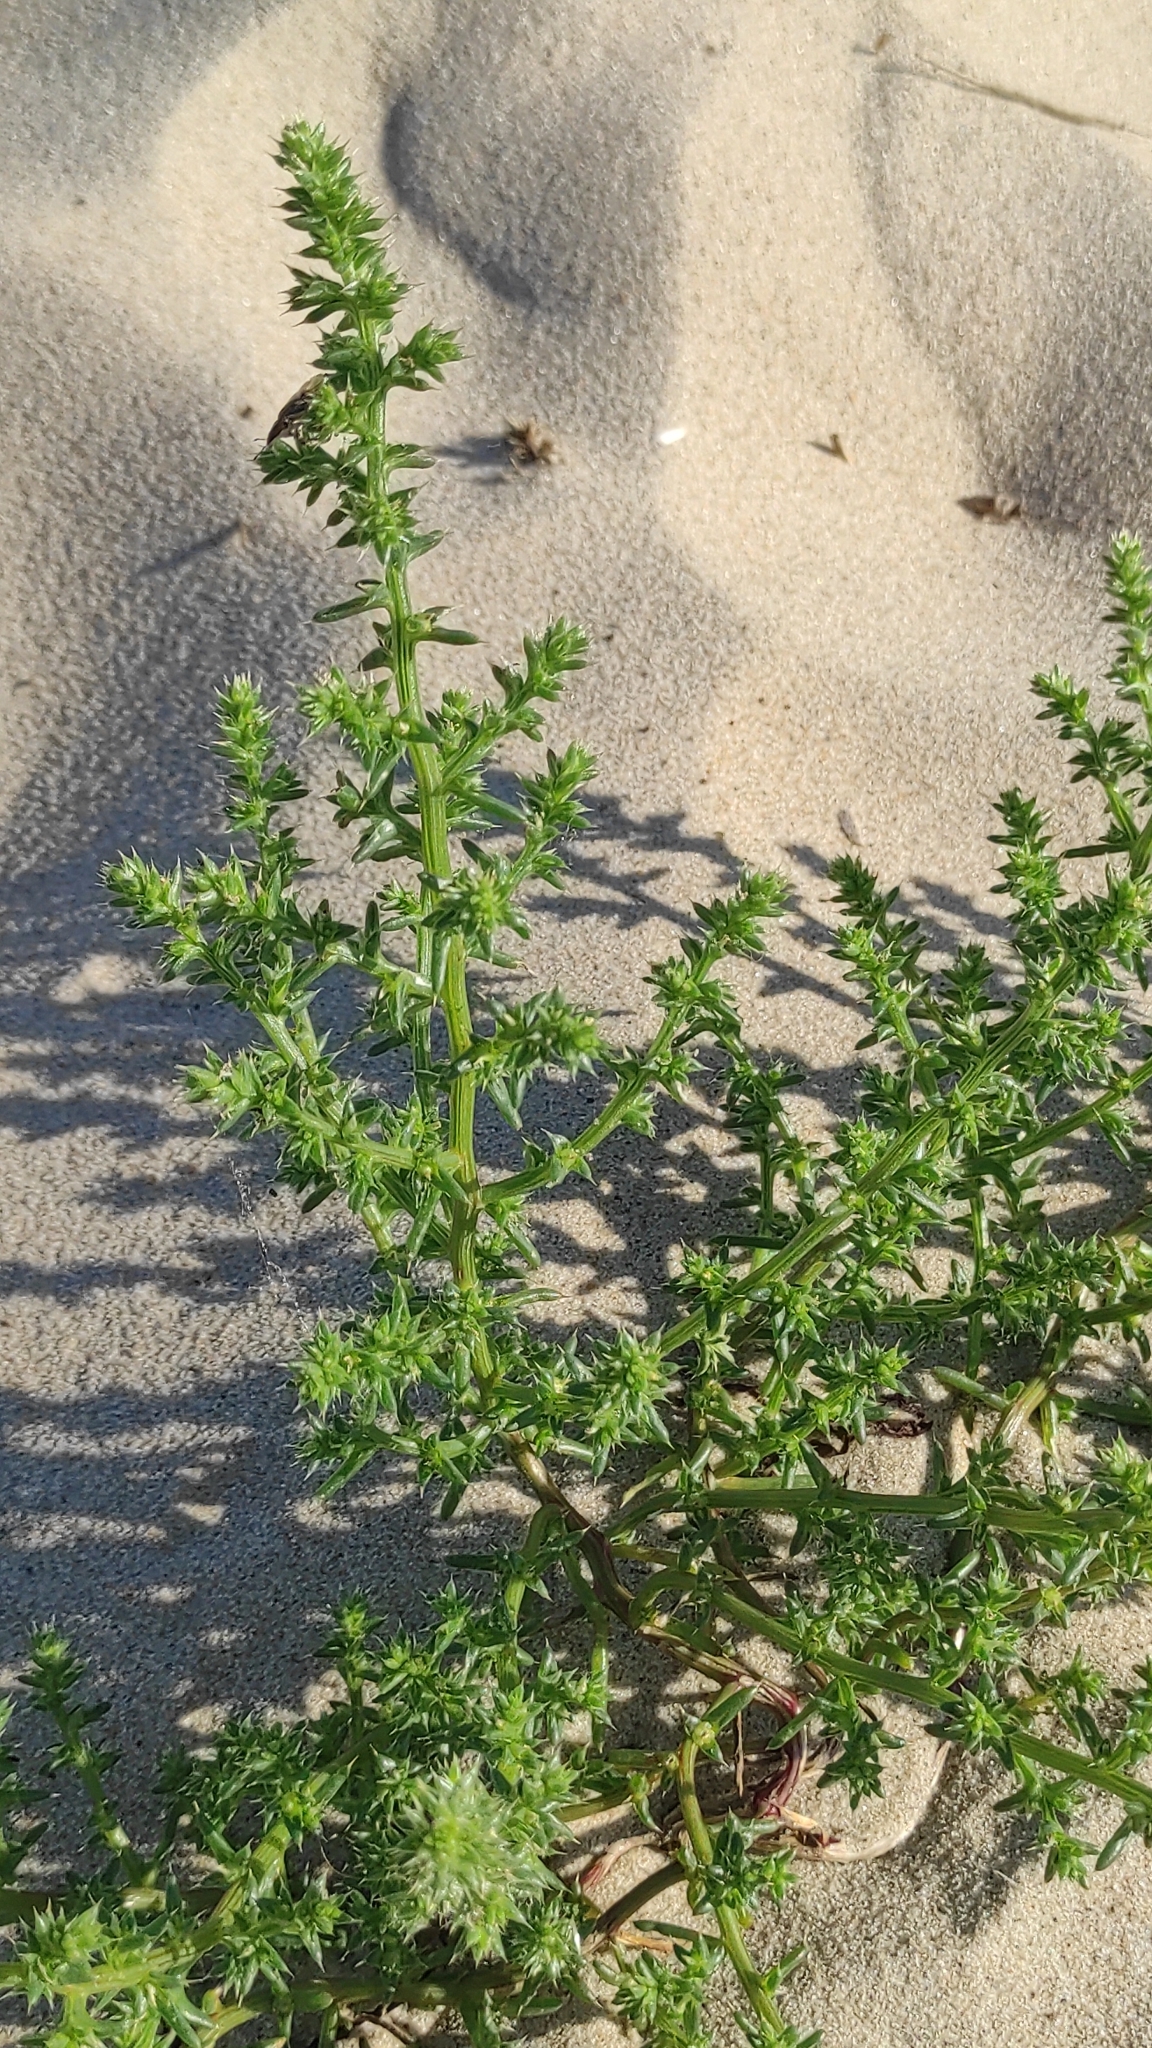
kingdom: Plantae
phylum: Tracheophyta
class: Magnoliopsida
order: Caryophyllales
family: Amaranthaceae
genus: Salsola
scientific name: Salsola kali
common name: Saltwort
